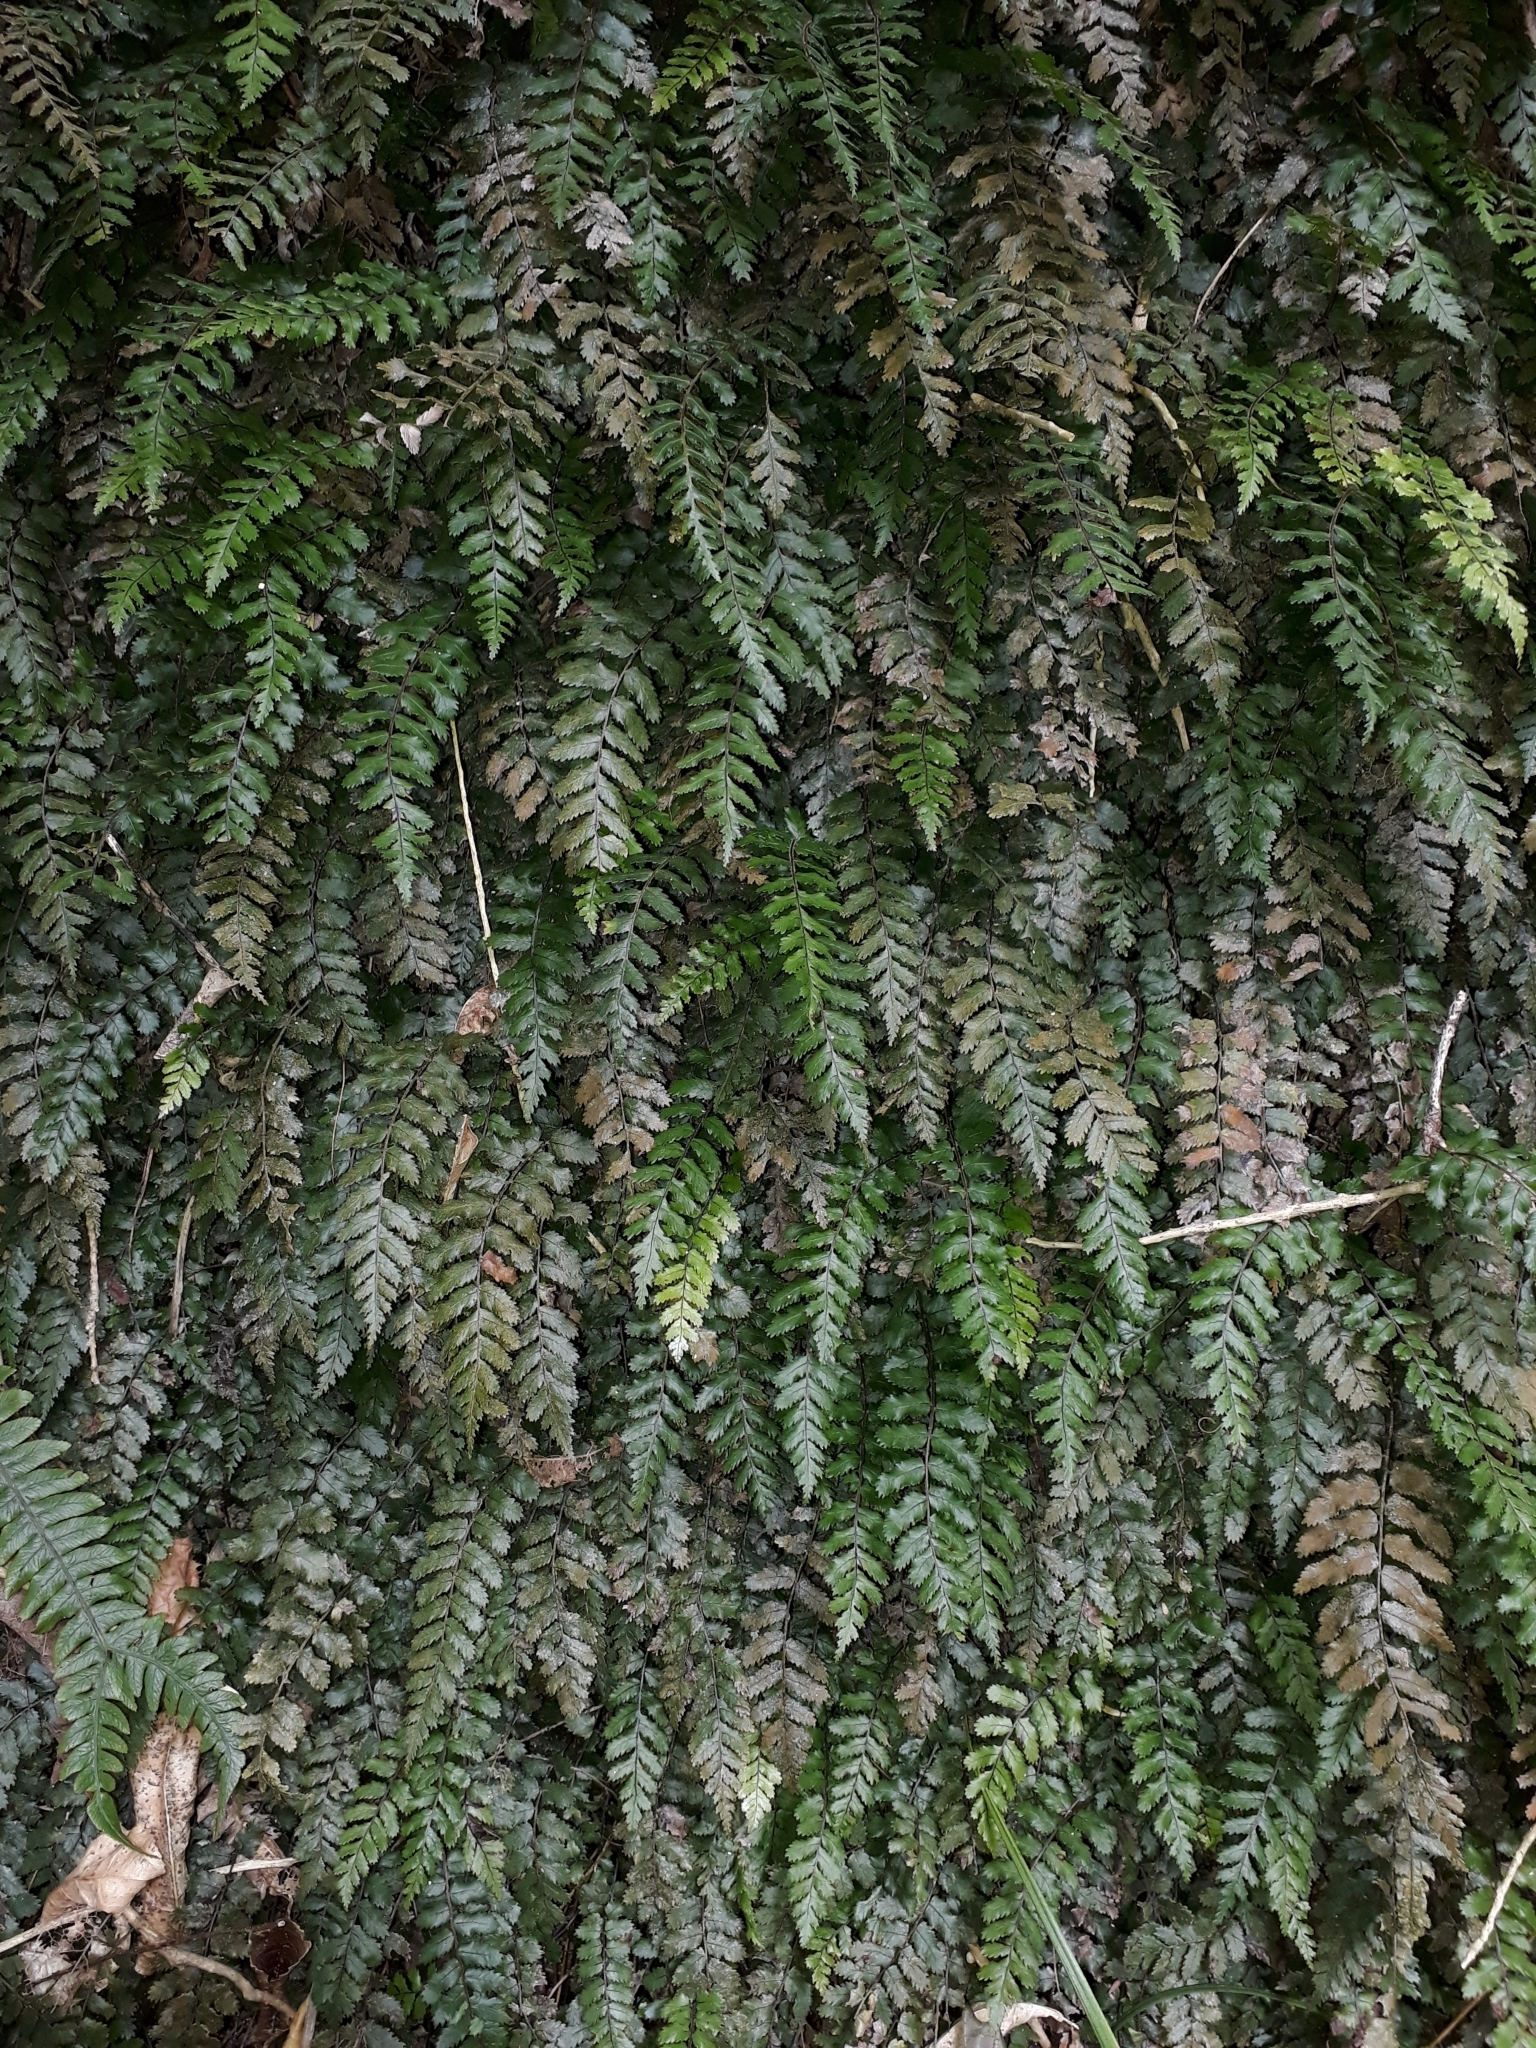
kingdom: Plantae
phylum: Tracheophyta
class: Polypodiopsida
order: Polypodiales
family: Blechnaceae
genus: Icarus
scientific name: Icarus filiformis
